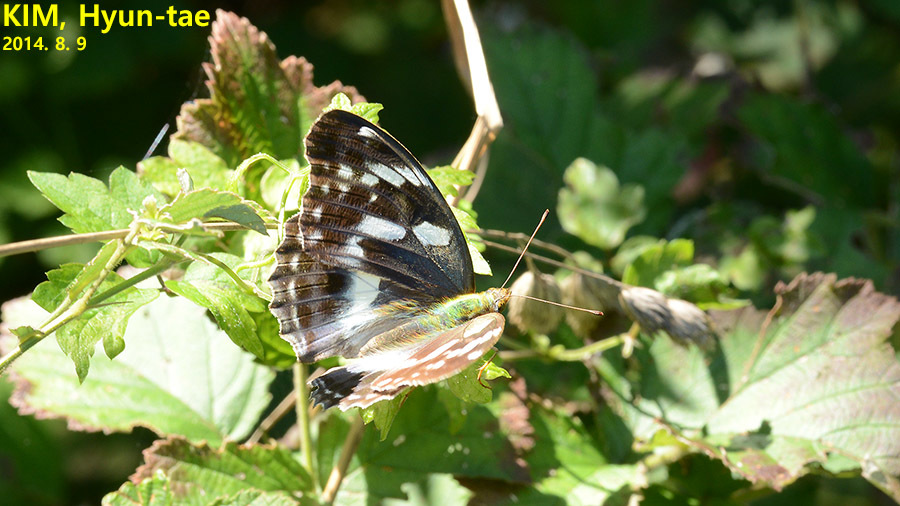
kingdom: Animalia
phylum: Arthropoda
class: Insecta
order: Lepidoptera
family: Nymphalidae
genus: Damora
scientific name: Damora sagana
